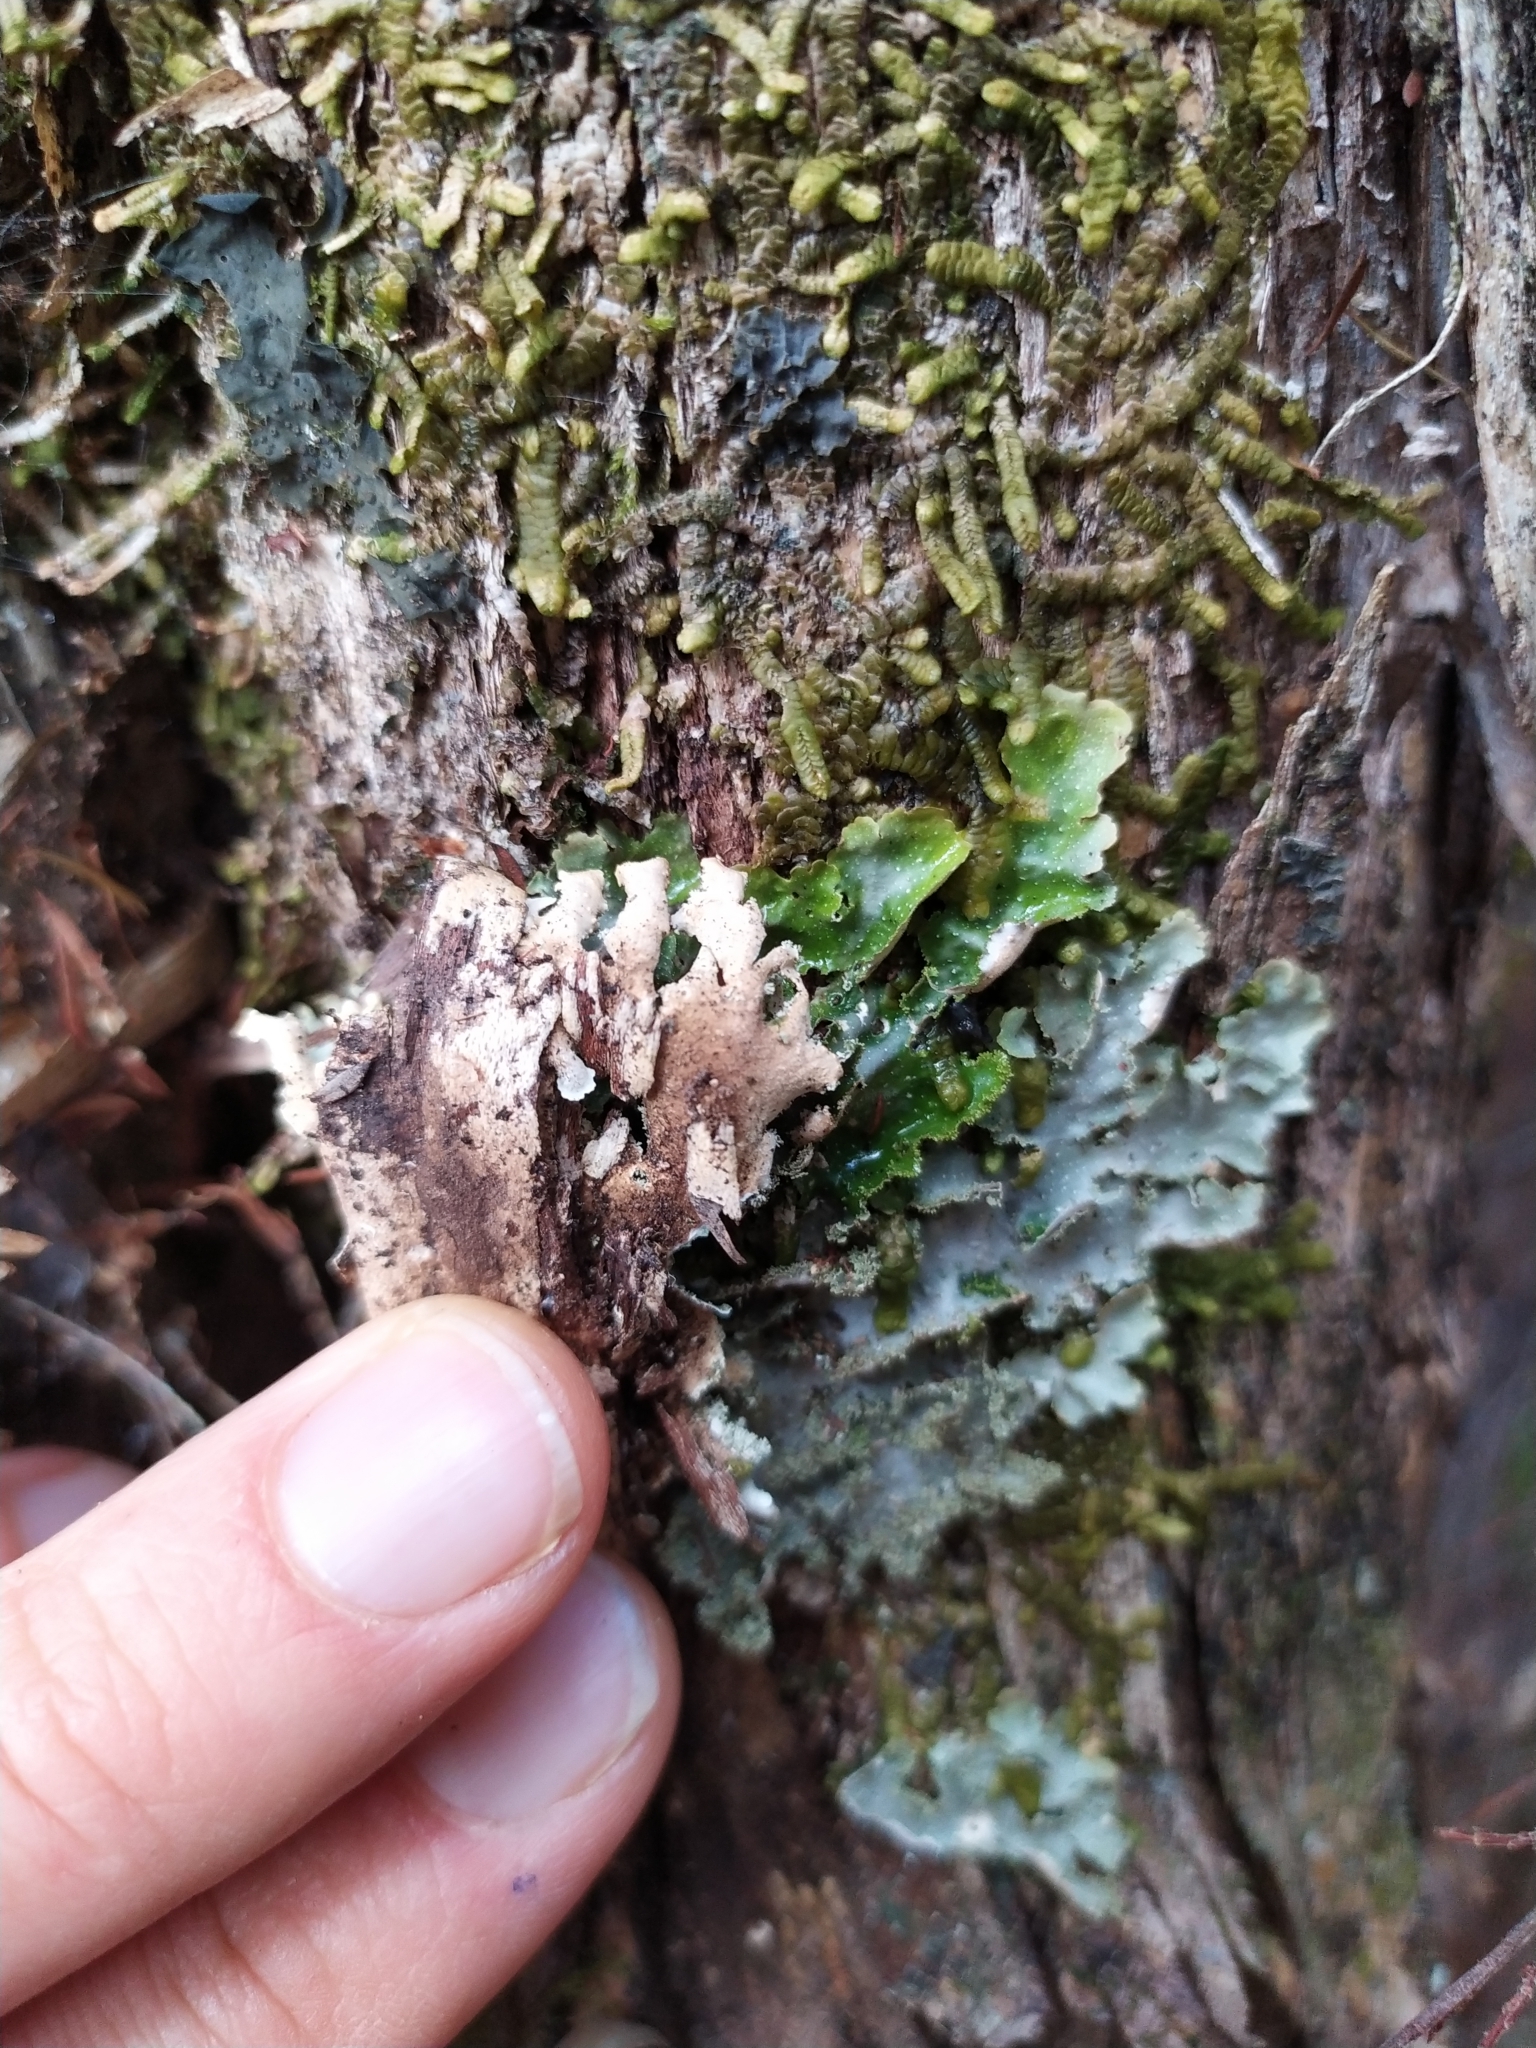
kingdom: Fungi
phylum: Ascomycota
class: Lecanoromycetes
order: Peltigerales
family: Lobariaceae
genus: Pseudocyphellaria
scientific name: Pseudocyphellaria wilkinsii
